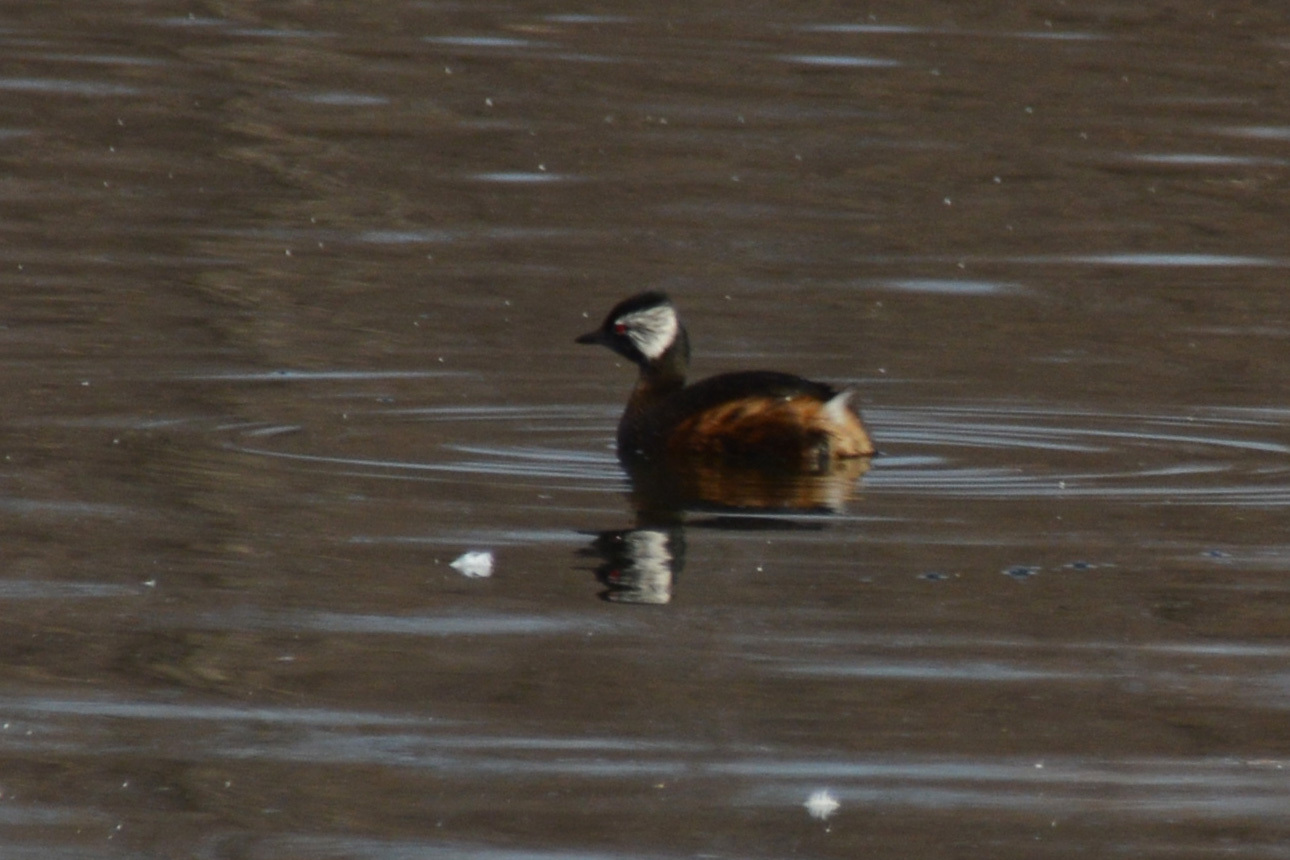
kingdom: Animalia
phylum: Chordata
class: Aves
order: Podicipediformes
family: Podicipedidae
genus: Rollandia
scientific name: Rollandia rolland
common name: White-tufted grebe
